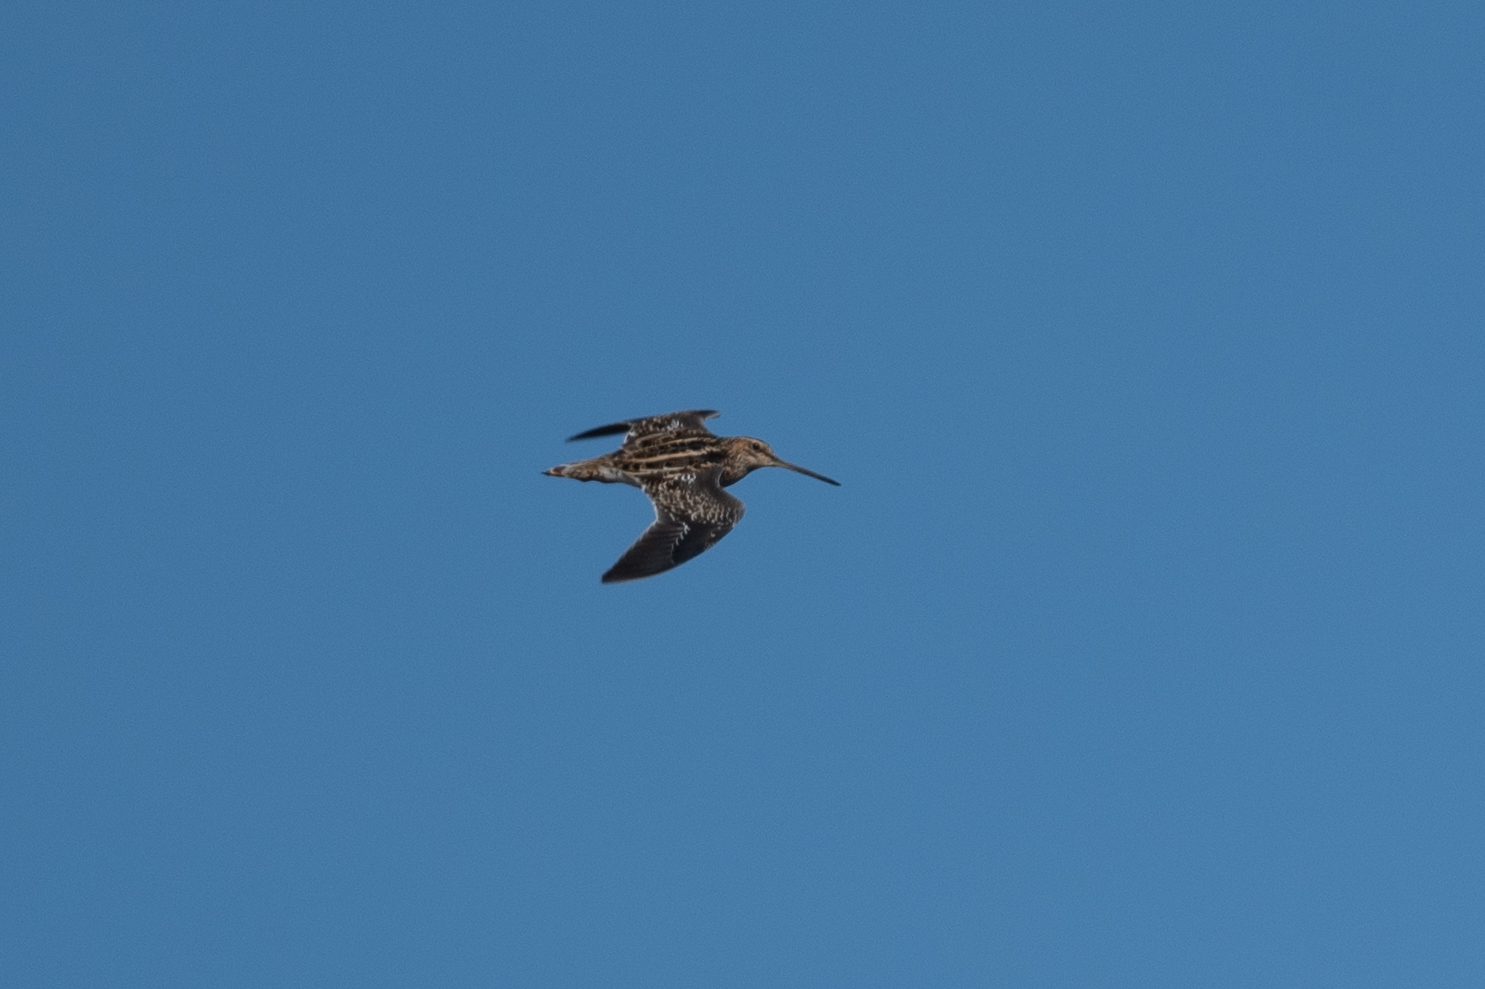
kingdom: Animalia
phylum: Chordata
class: Aves
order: Charadriiformes
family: Scolopacidae
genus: Gallinago
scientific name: Gallinago delicata
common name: Wilson's snipe
